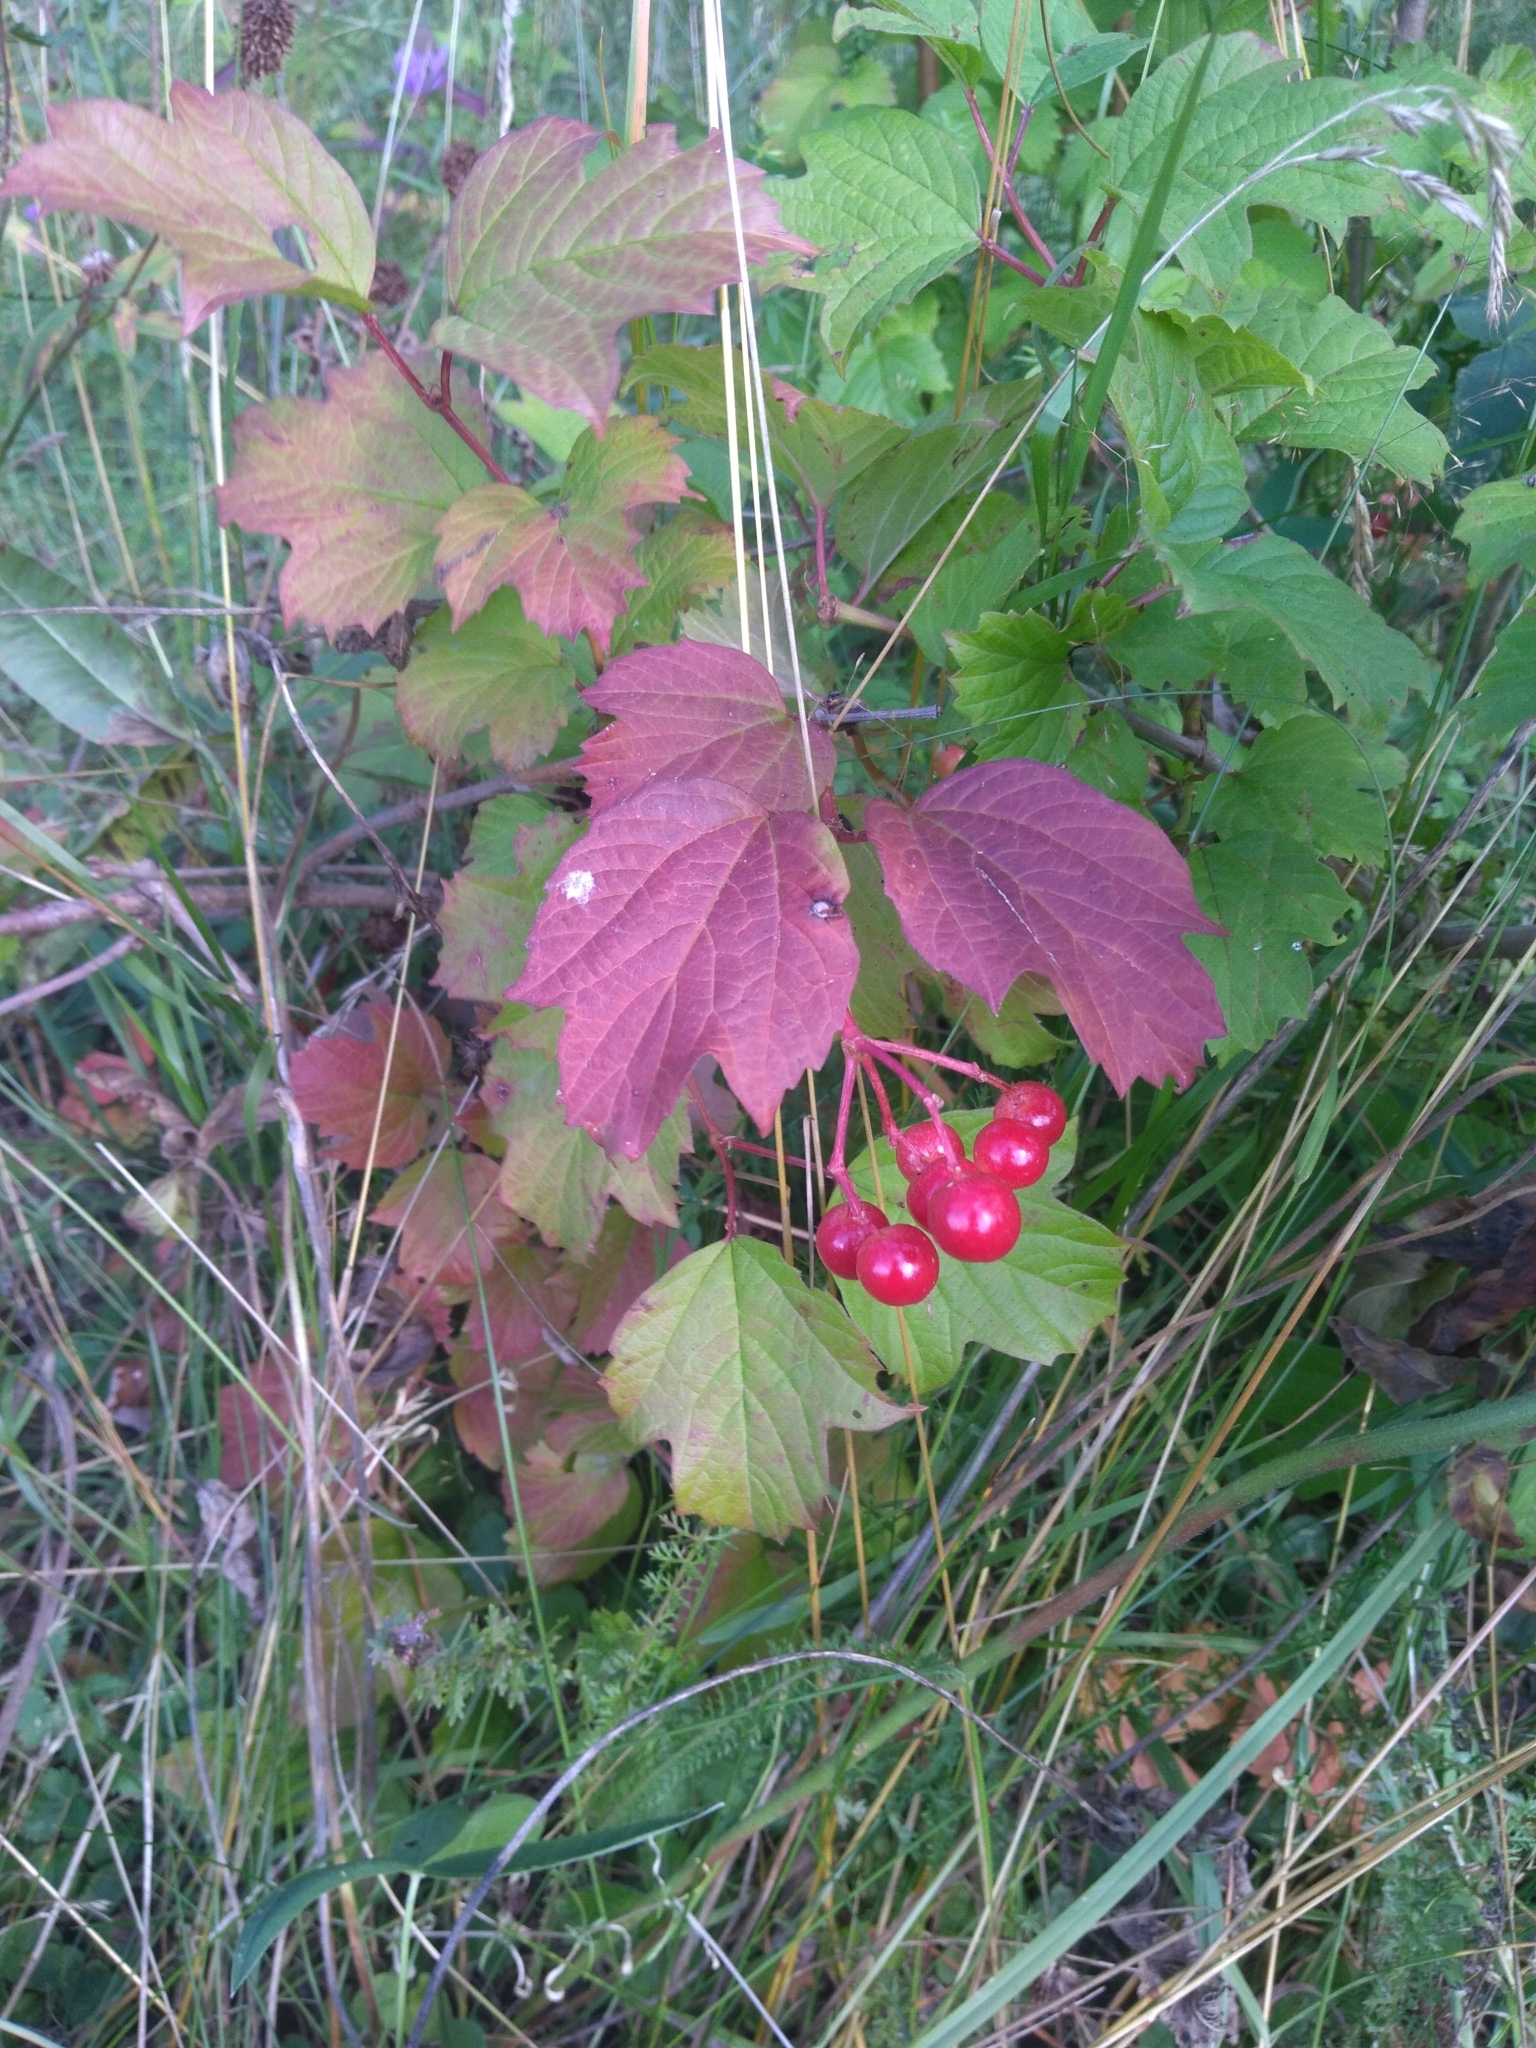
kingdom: Plantae
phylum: Tracheophyta
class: Magnoliopsida
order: Dipsacales
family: Viburnaceae
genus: Viburnum
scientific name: Viburnum opulus
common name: Guelder-rose
